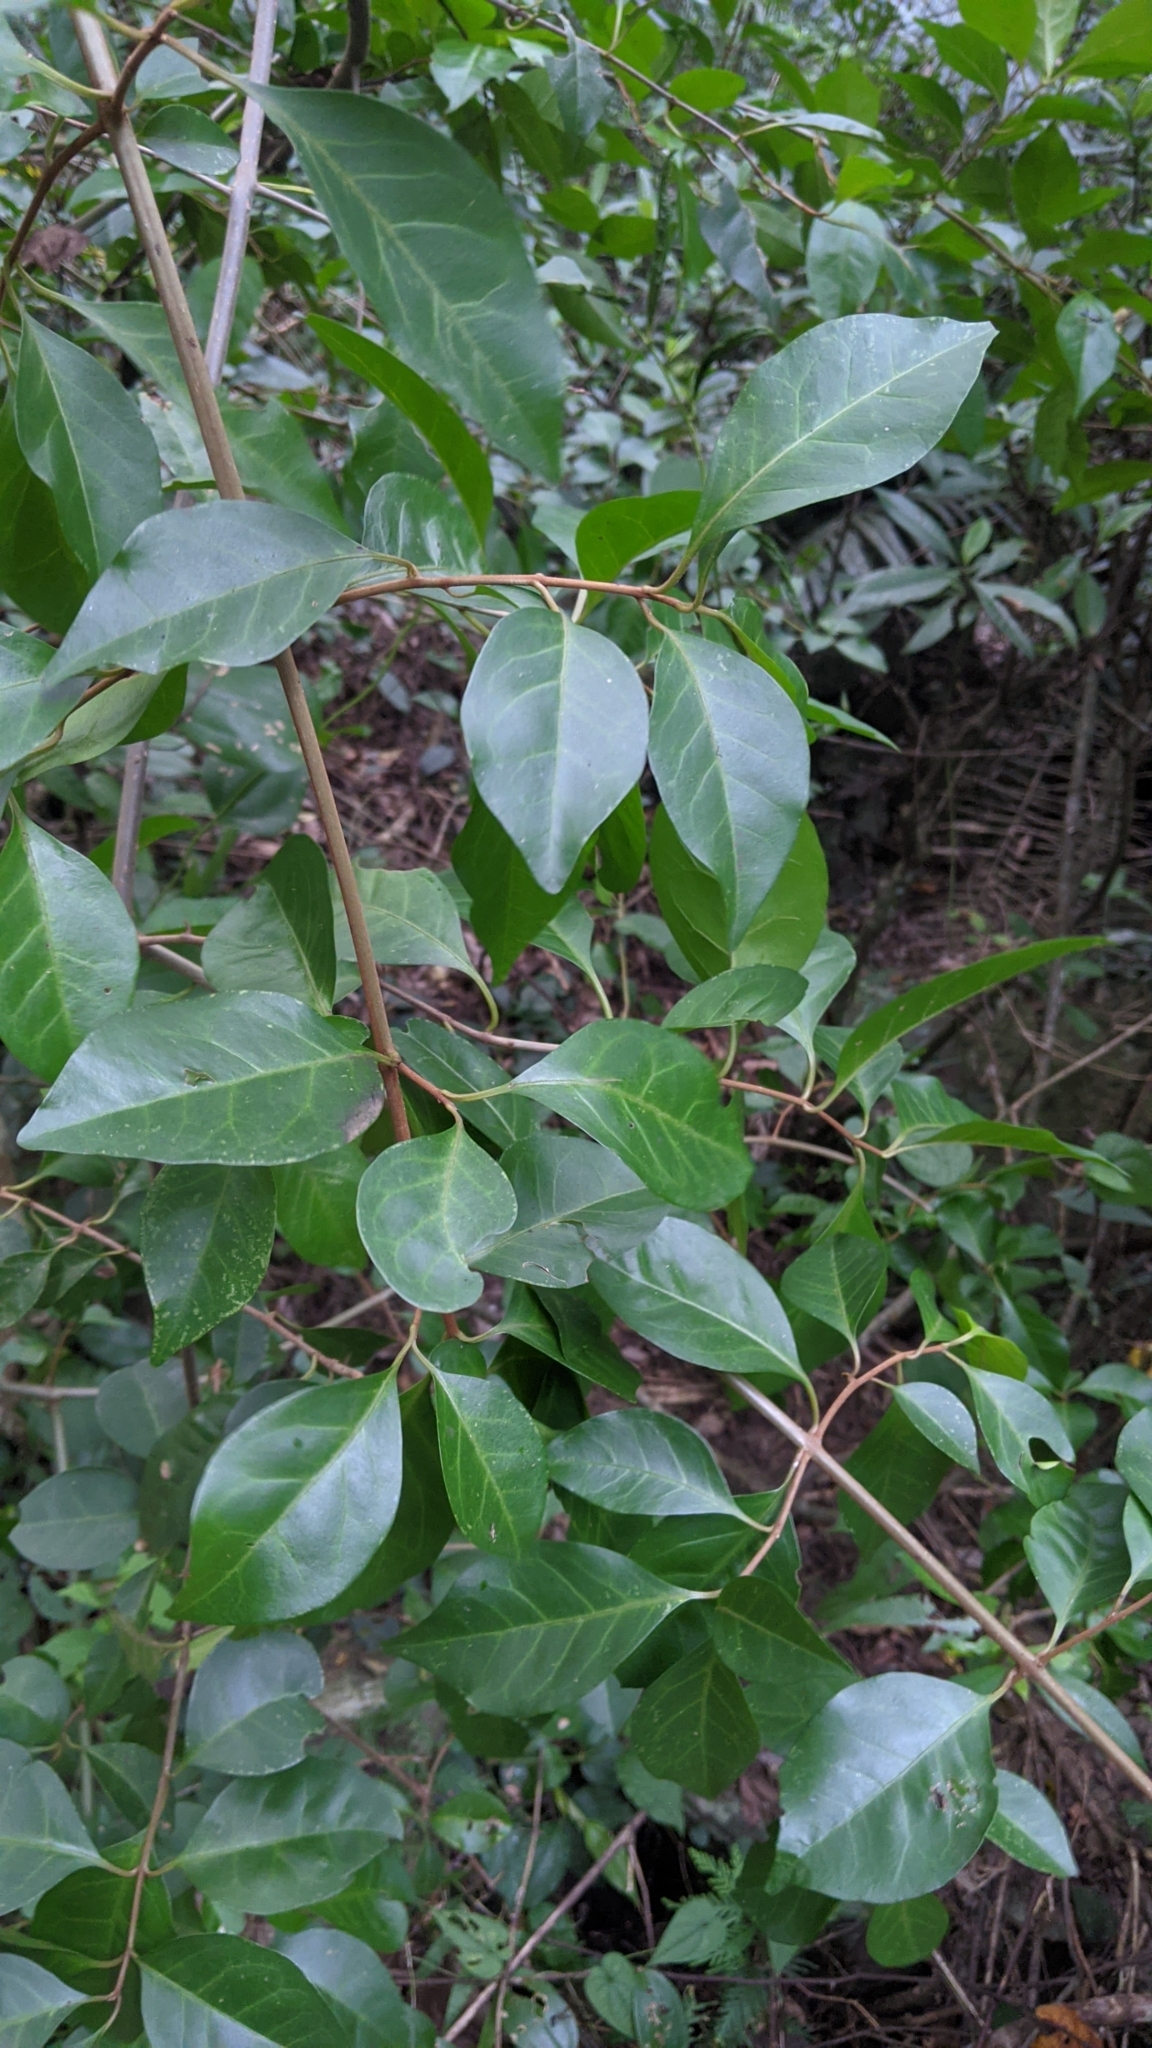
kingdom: Plantae
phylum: Tracheophyta
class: Magnoliopsida
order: Caryophyllales
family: Nyctaginaceae
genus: Pisonia
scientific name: Pisonia aculeata
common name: Cockspur vine
